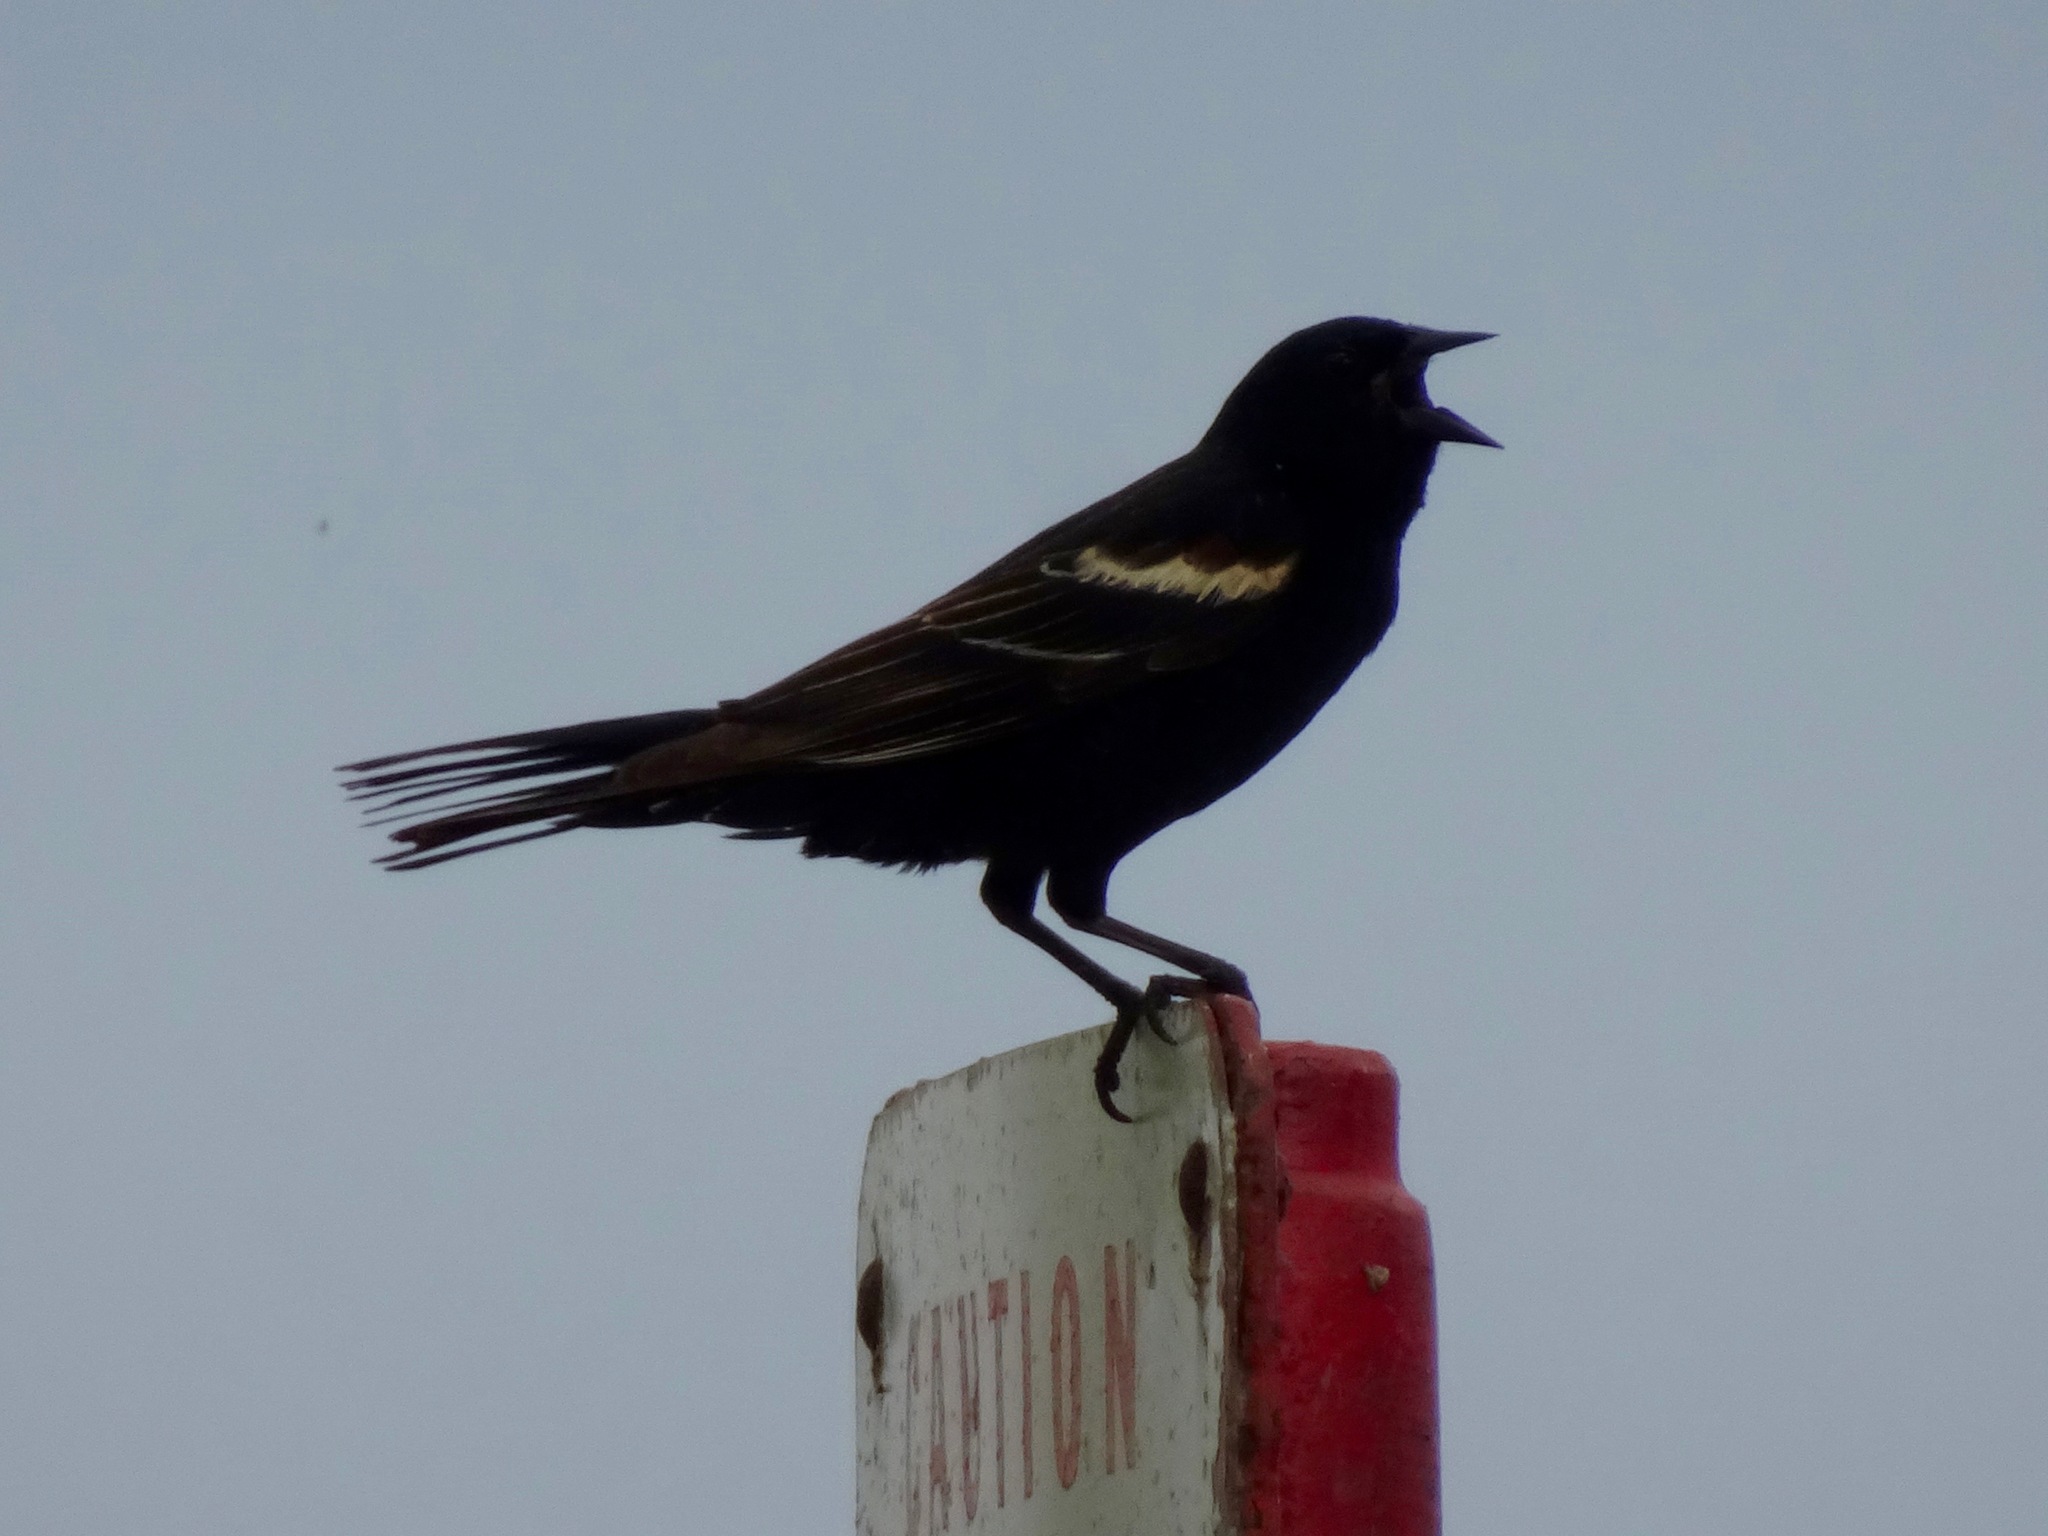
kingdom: Animalia
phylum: Chordata
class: Aves
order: Passeriformes
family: Icteridae
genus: Agelaius
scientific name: Agelaius phoeniceus
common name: Red-winged blackbird
